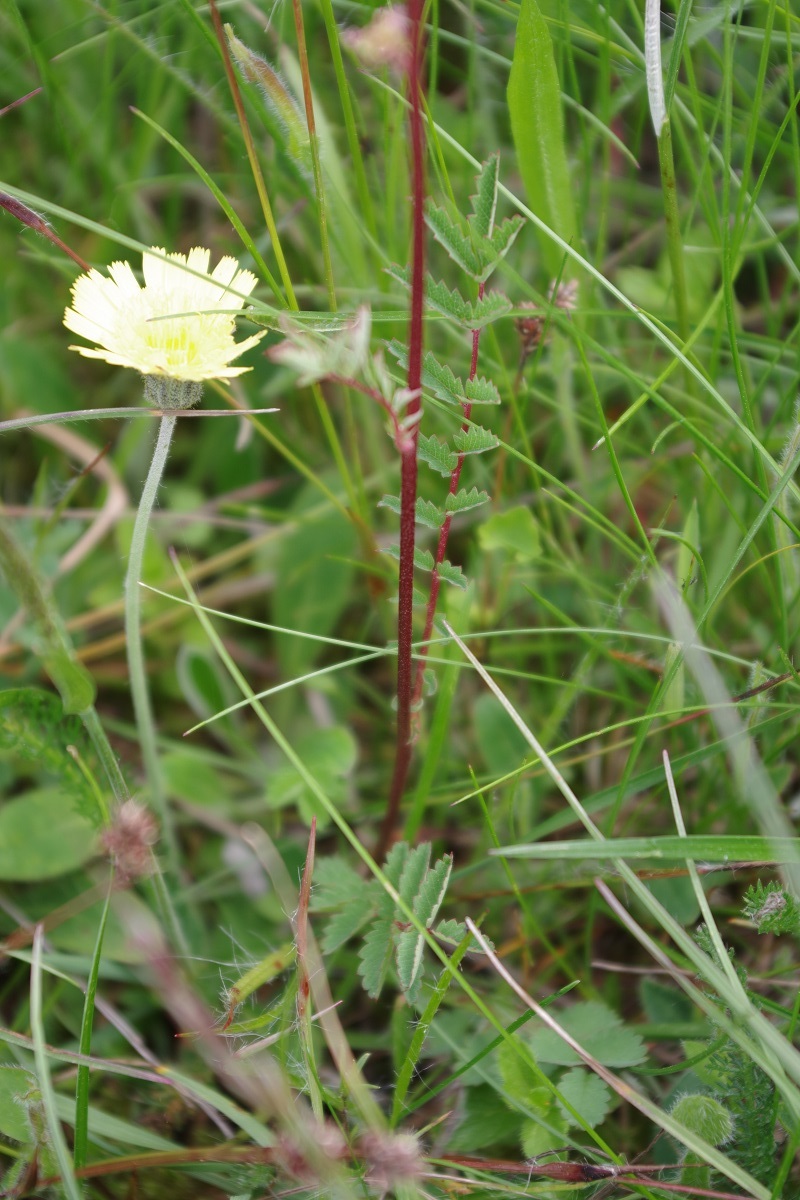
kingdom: Plantae
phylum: Tracheophyta
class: Magnoliopsida
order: Rosales
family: Rosaceae
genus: Poterium
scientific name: Poterium sanguisorba
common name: Salad burnet
